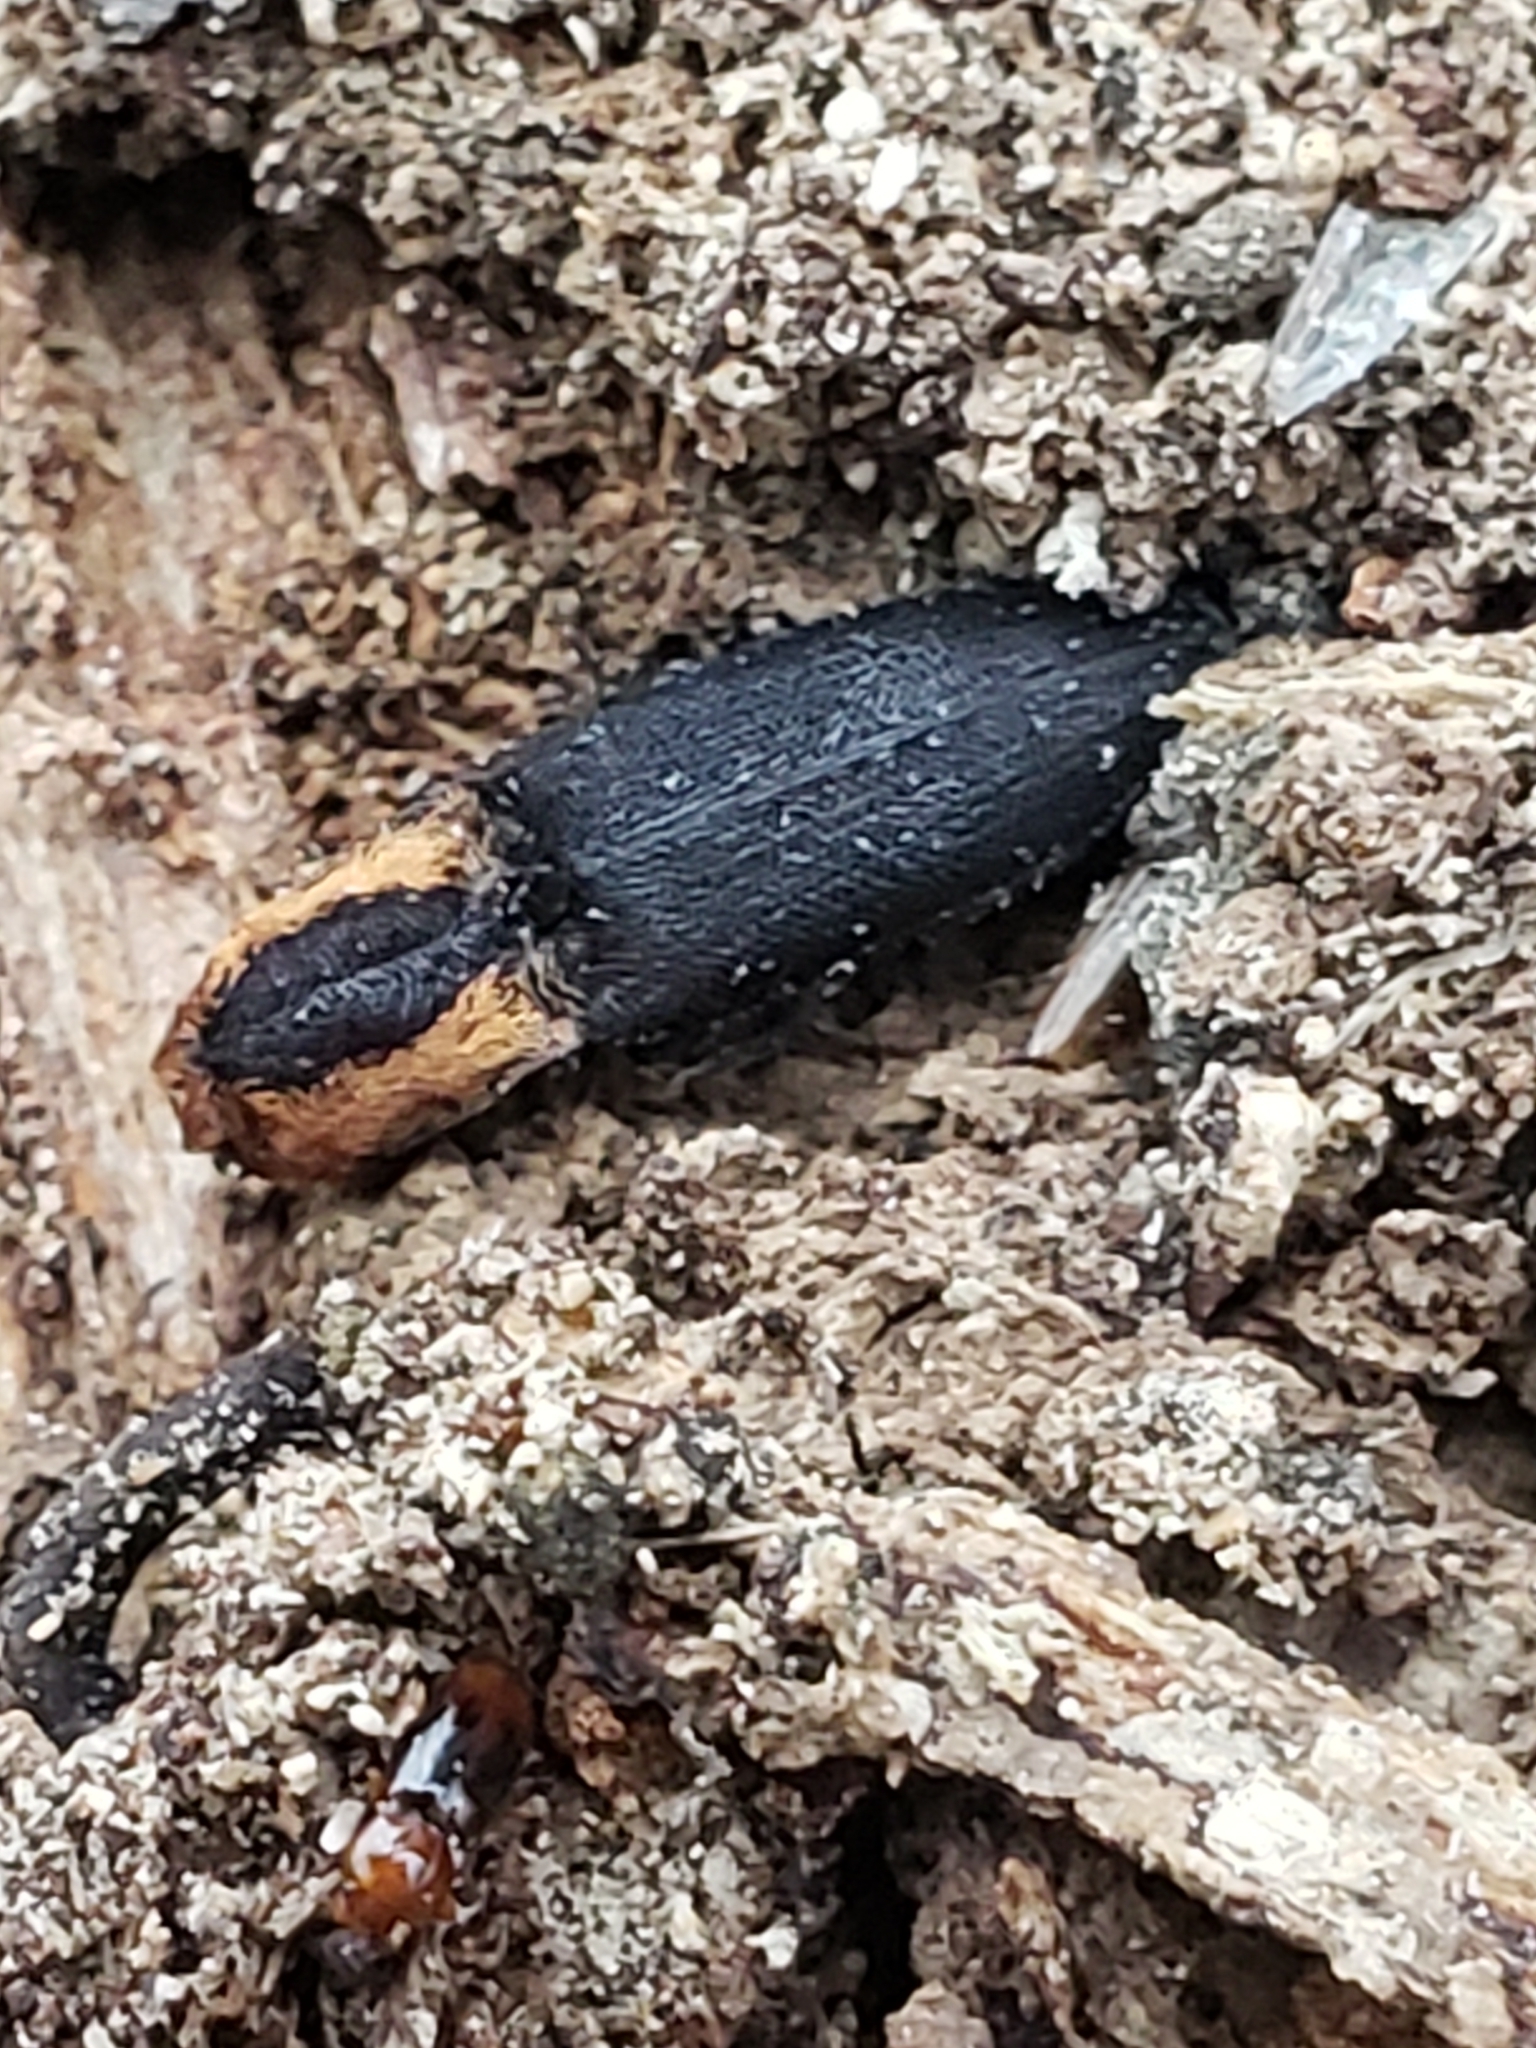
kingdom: Animalia
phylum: Arthropoda
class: Insecta
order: Coleoptera
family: Elateridae
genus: Lacon
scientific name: Lacon discoideus
